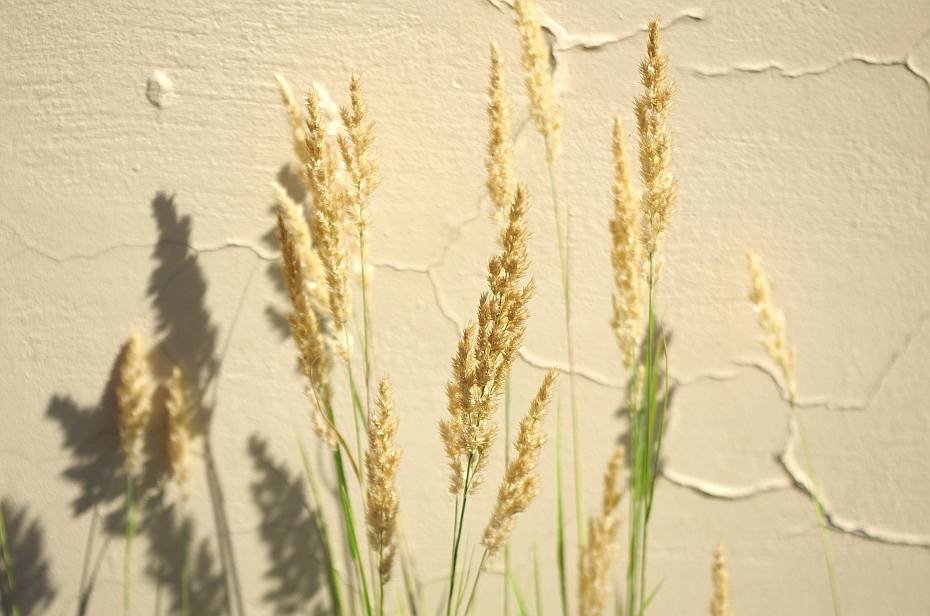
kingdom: Plantae
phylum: Tracheophyta
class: Liliopsida
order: Poales
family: Poaceae
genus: Calamagrostis
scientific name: Calamagrostis epigejos
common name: Wood small-reed
